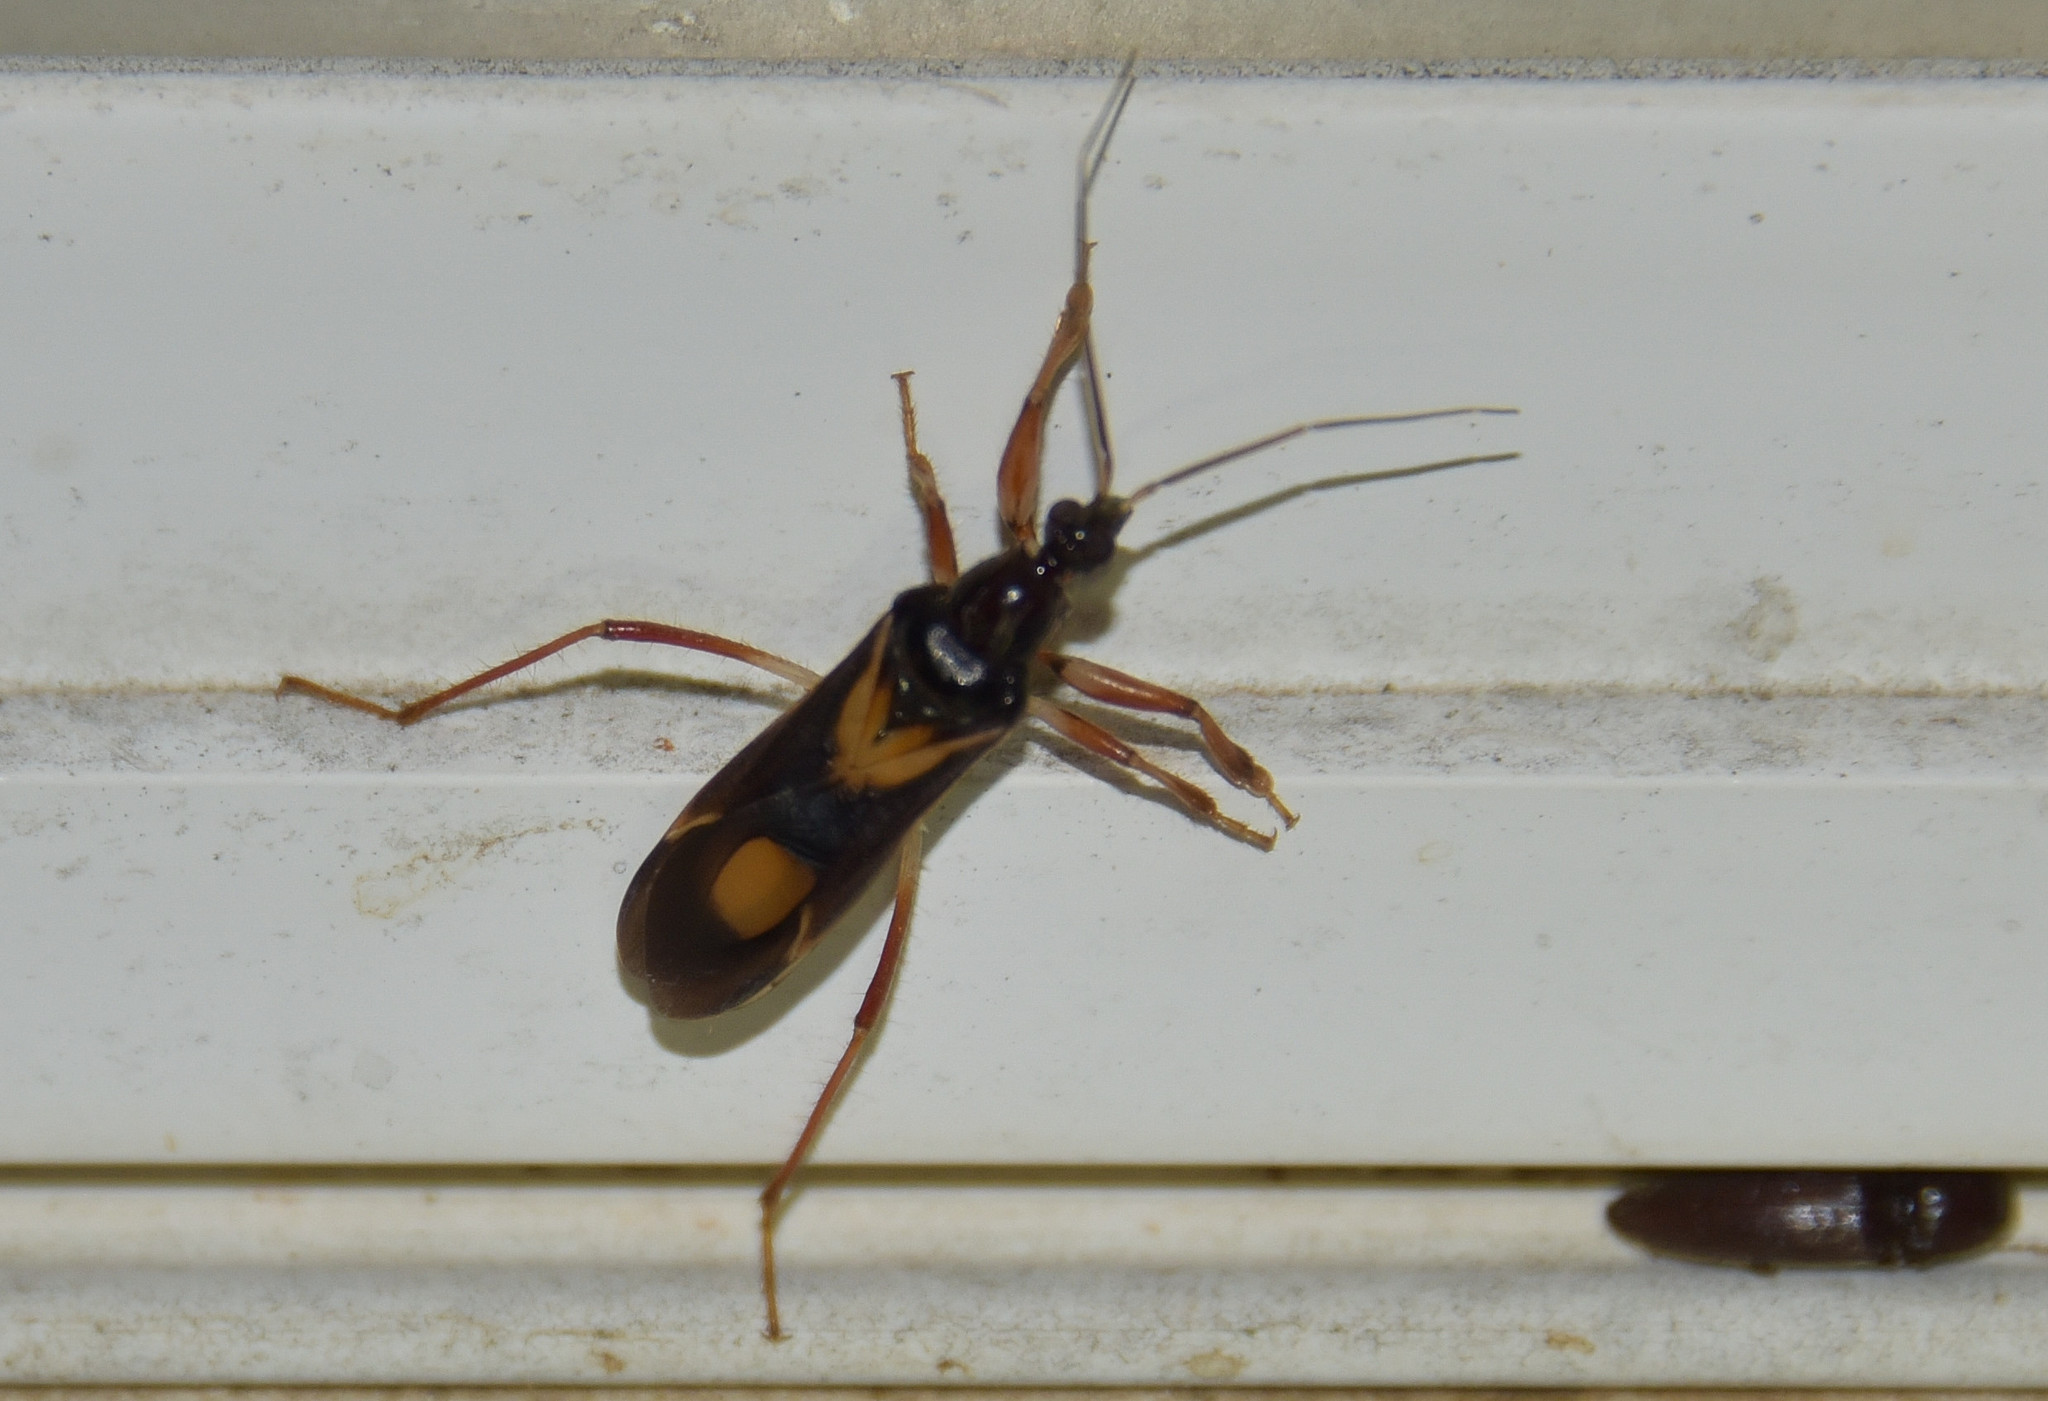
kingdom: Animalia
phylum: Arthropoda
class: Insecta
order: Hemiptera
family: Reduviidae
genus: Rasahus
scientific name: Rasahus hamatus
